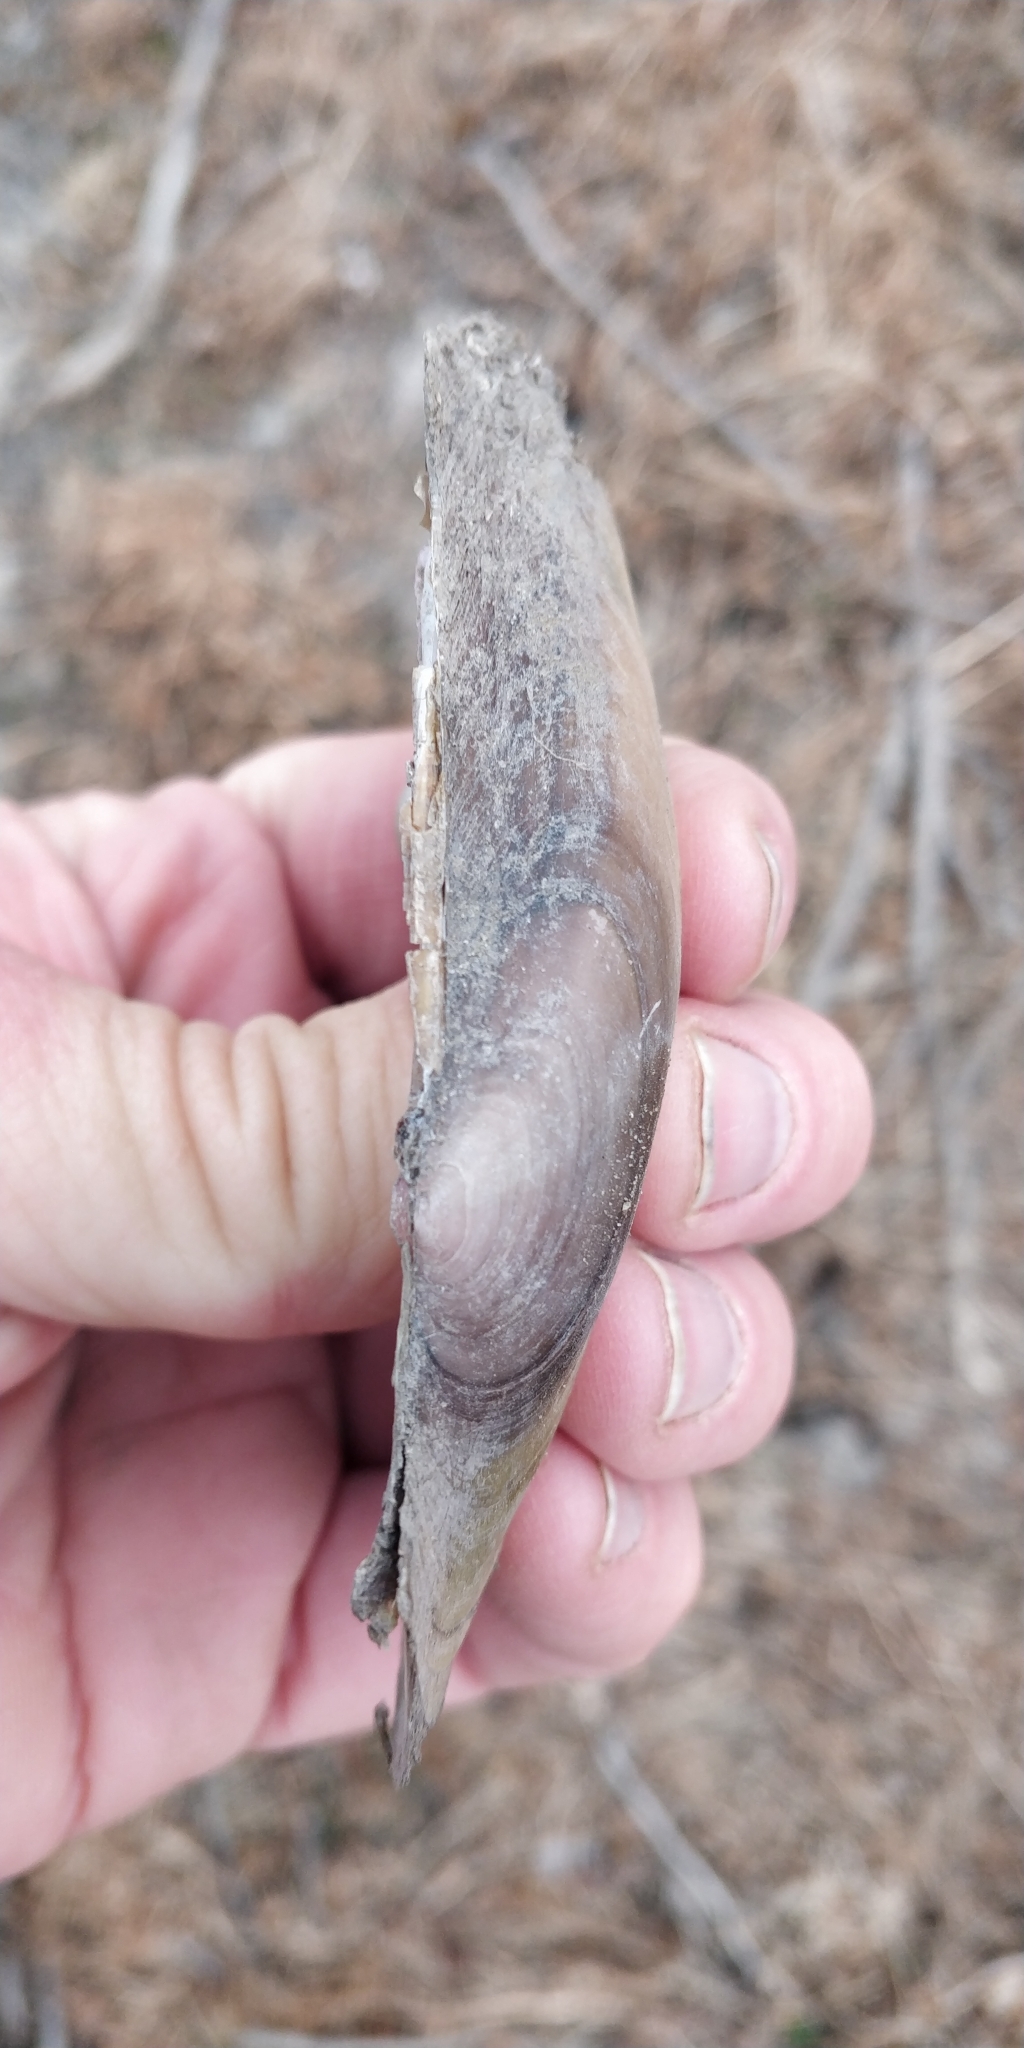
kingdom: Animalia
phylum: Mollusca
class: Bivalvia
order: Unionida
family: Unionidae
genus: Potamilus
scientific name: Potamilus fragilis
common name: Fragile papershell
